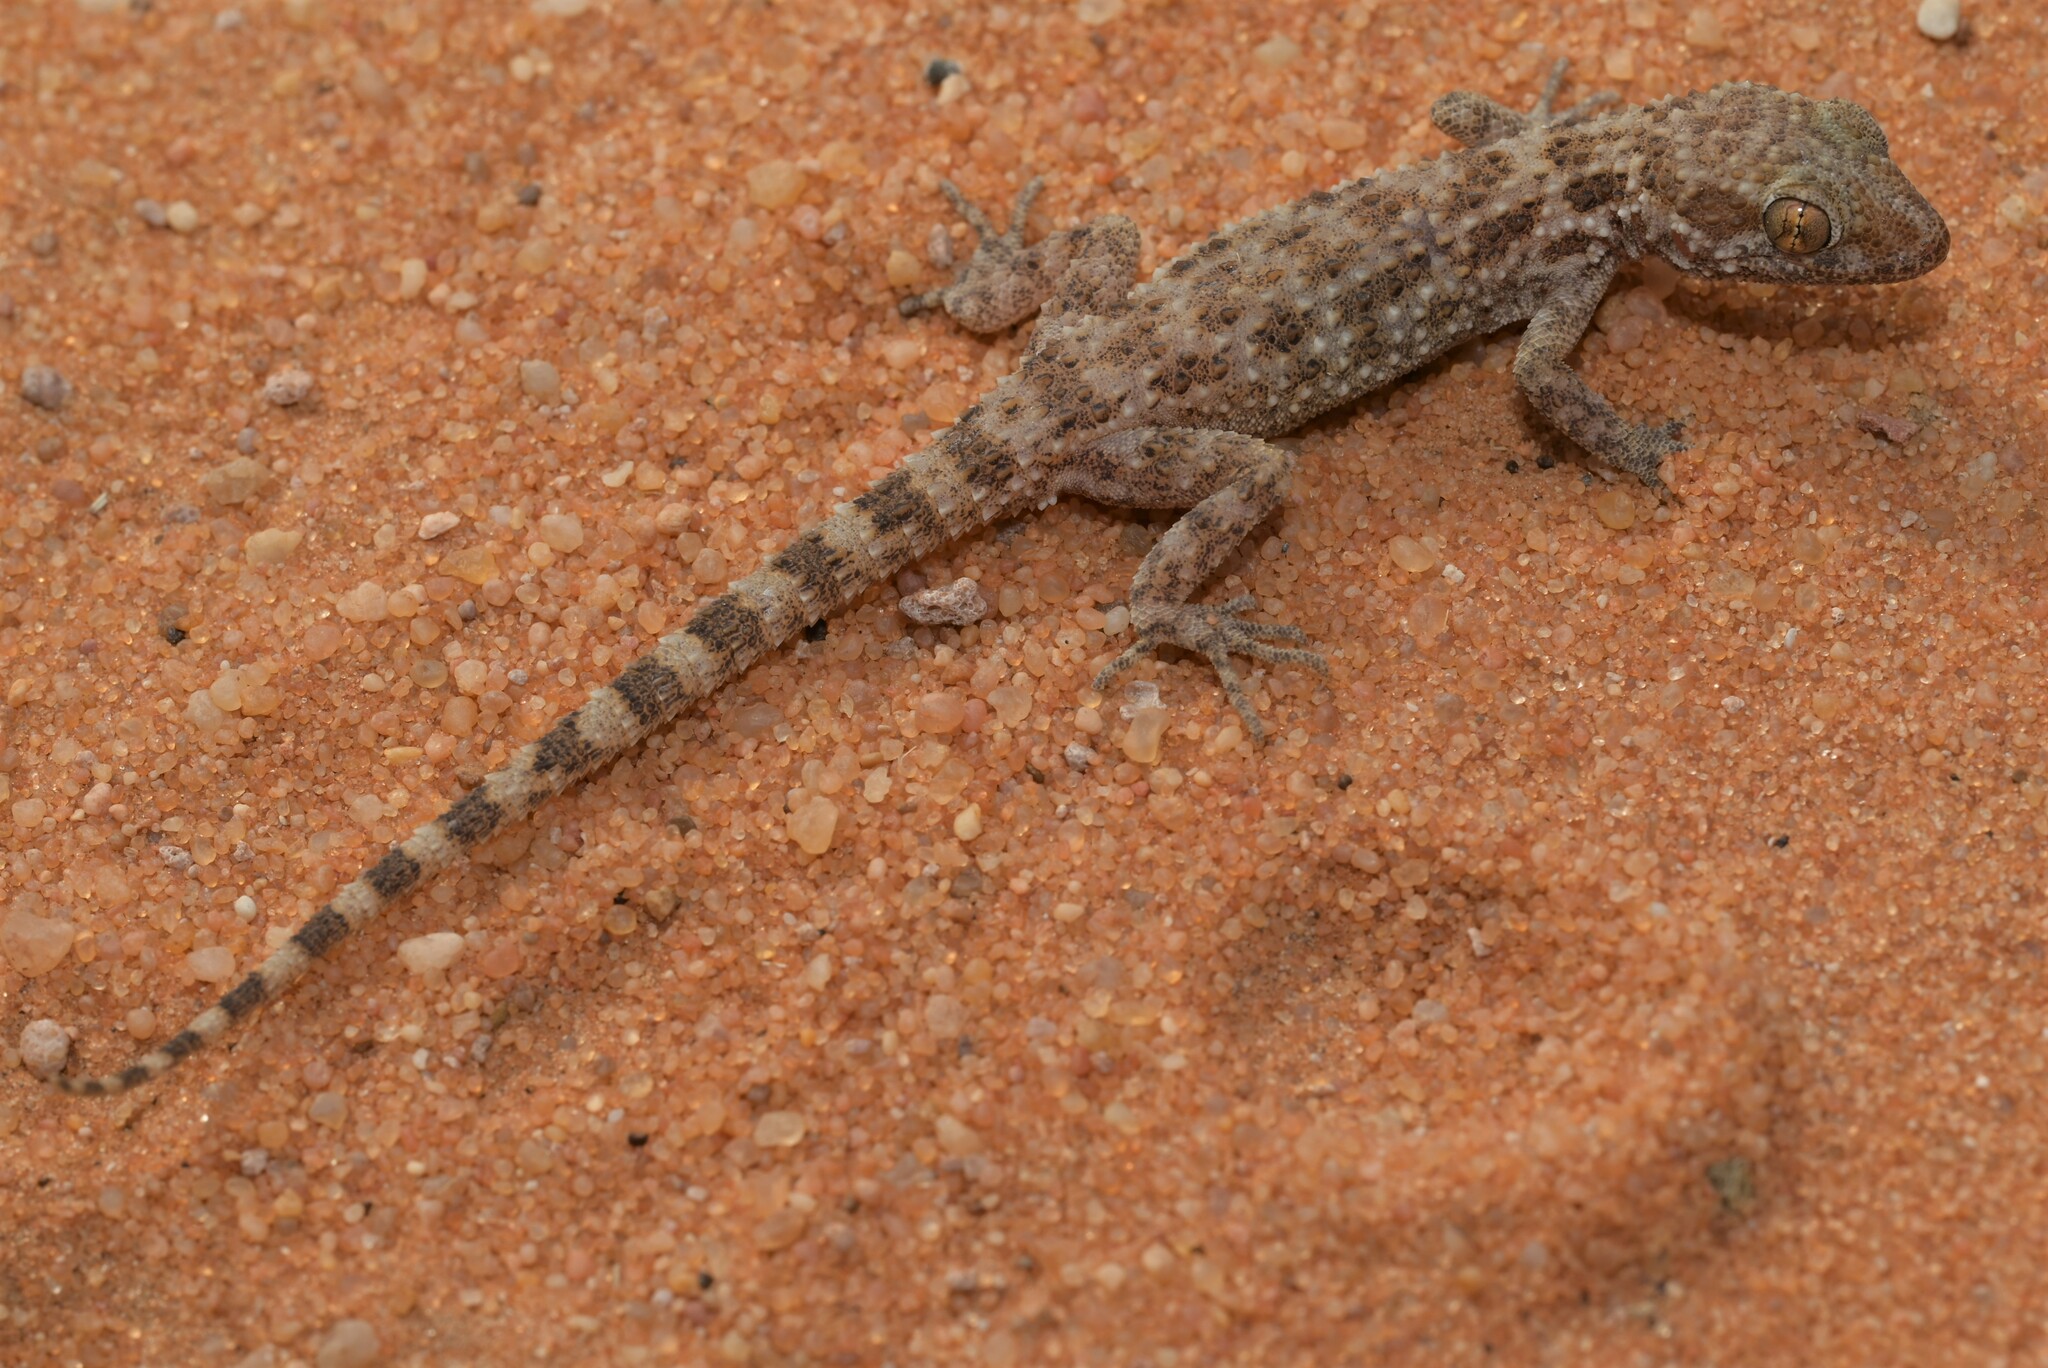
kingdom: Animalia
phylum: Chordata
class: Squamata
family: Gekkonidae
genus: Bunopus
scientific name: Bunopus tuberculatus
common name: Southern tuberculated gecko
